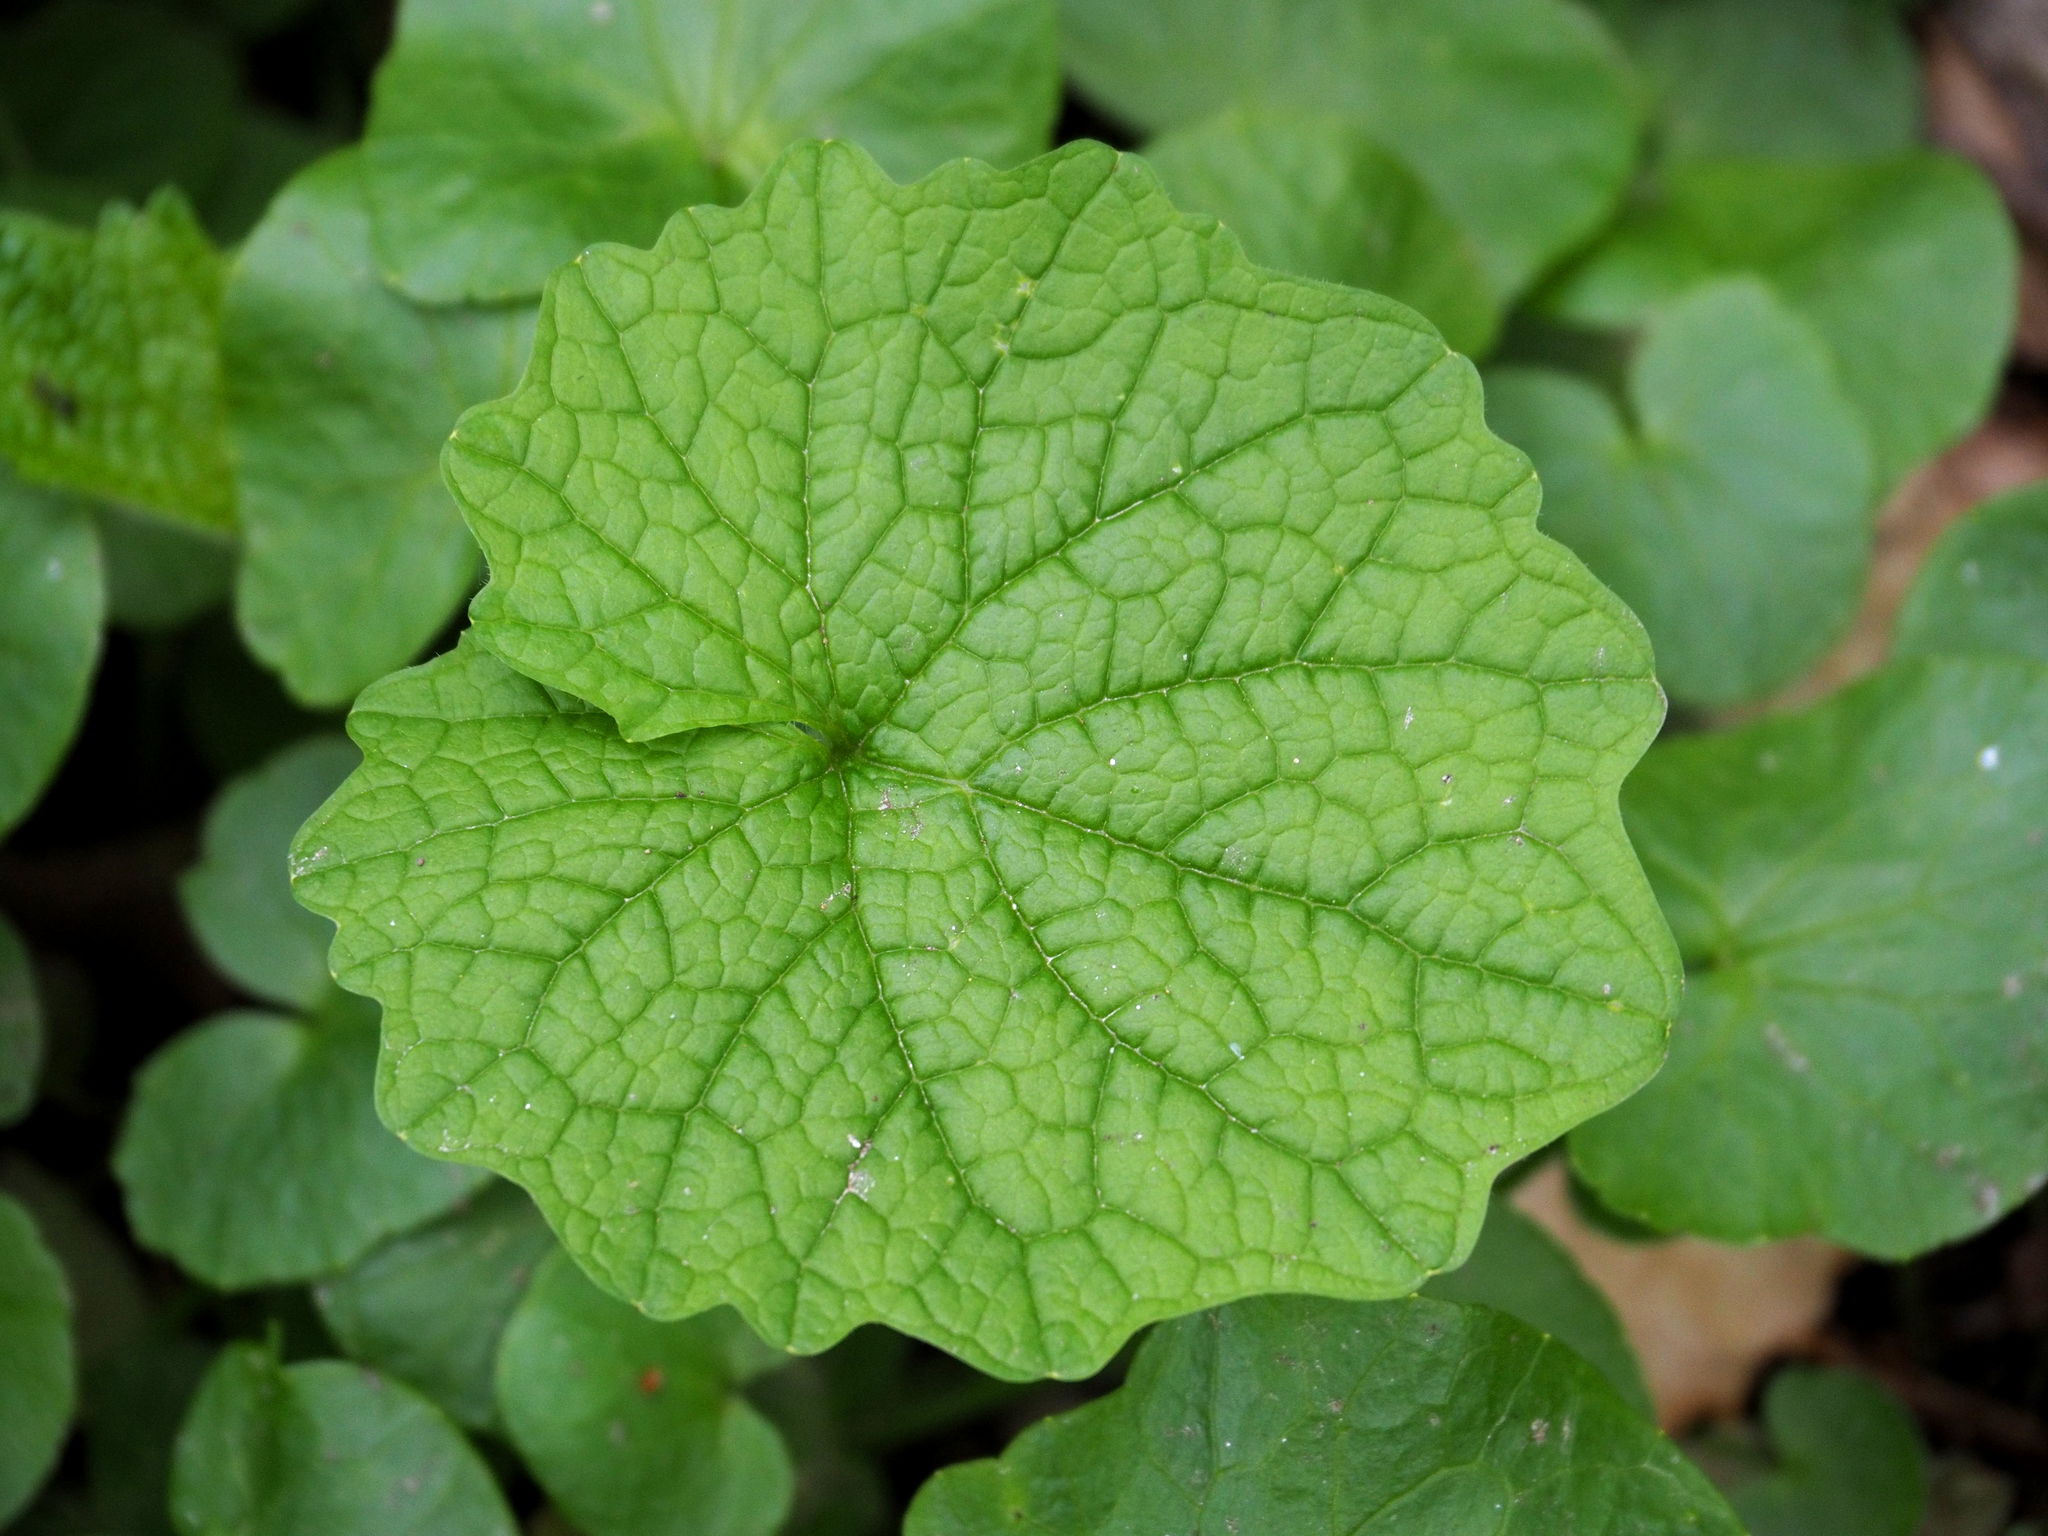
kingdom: Plantae
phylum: Tracheophyta
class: Magnoliopsida
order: Brassicales
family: Brassicaceae
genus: Alliaria
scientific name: Alliaria petiolata
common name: Garlic mustard
